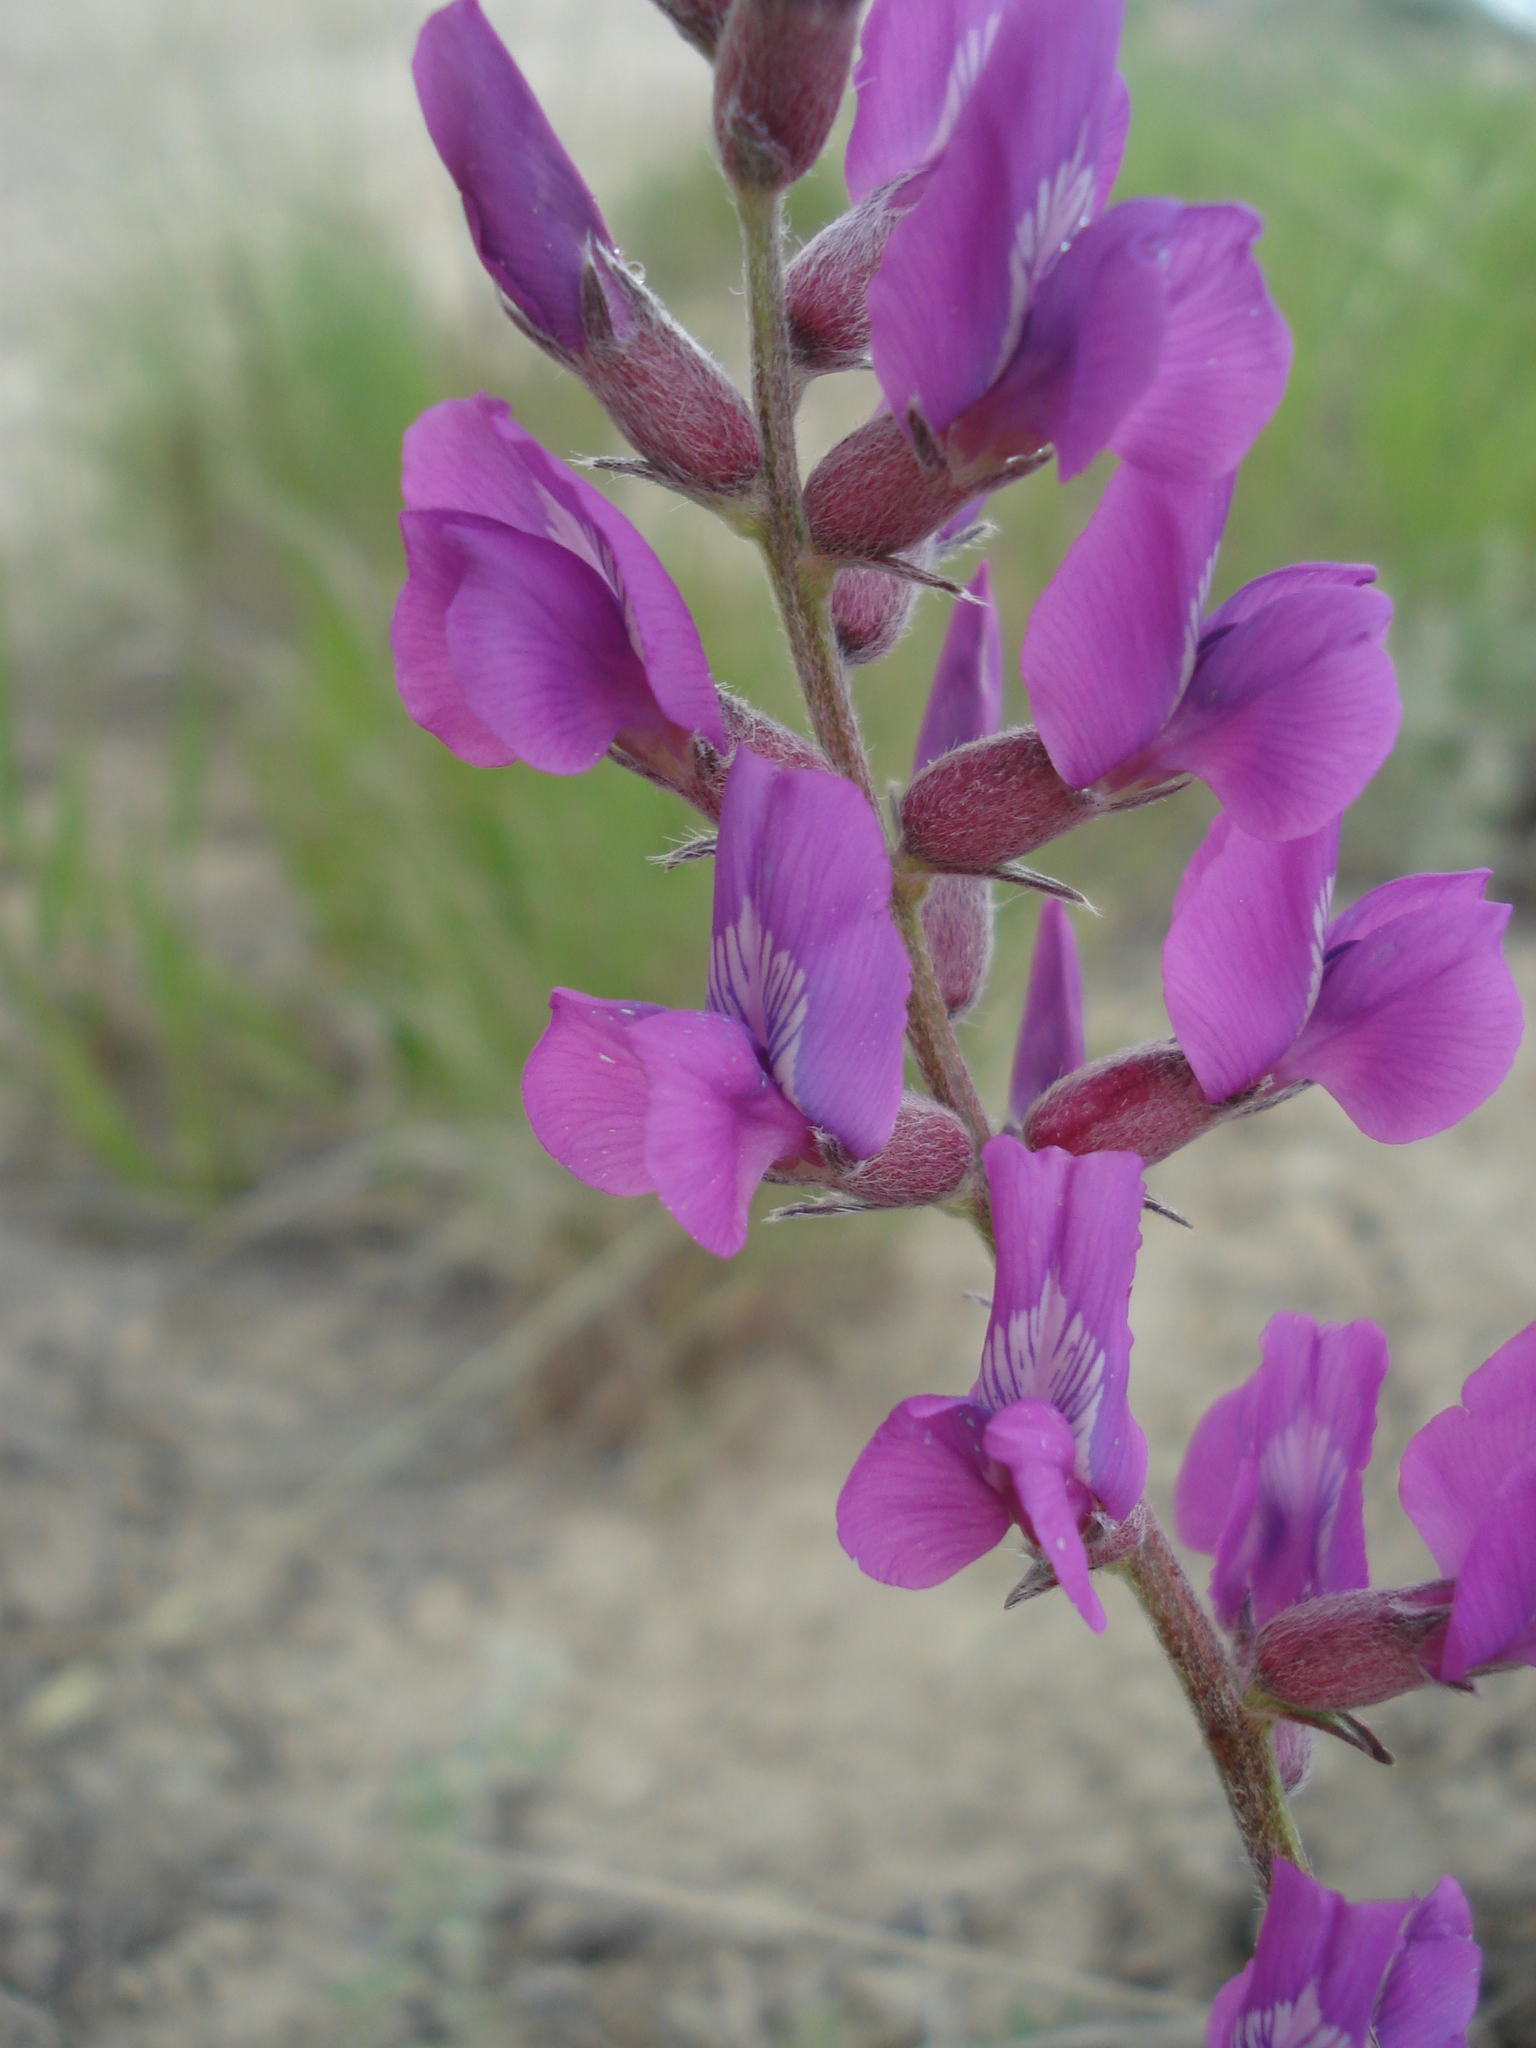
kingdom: Plantae
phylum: Tracheophyta
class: Magnoliopsida
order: Fabales
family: Fabaceae
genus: Oxytropis
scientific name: Oxytropis lambertii
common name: Purple locoweed
